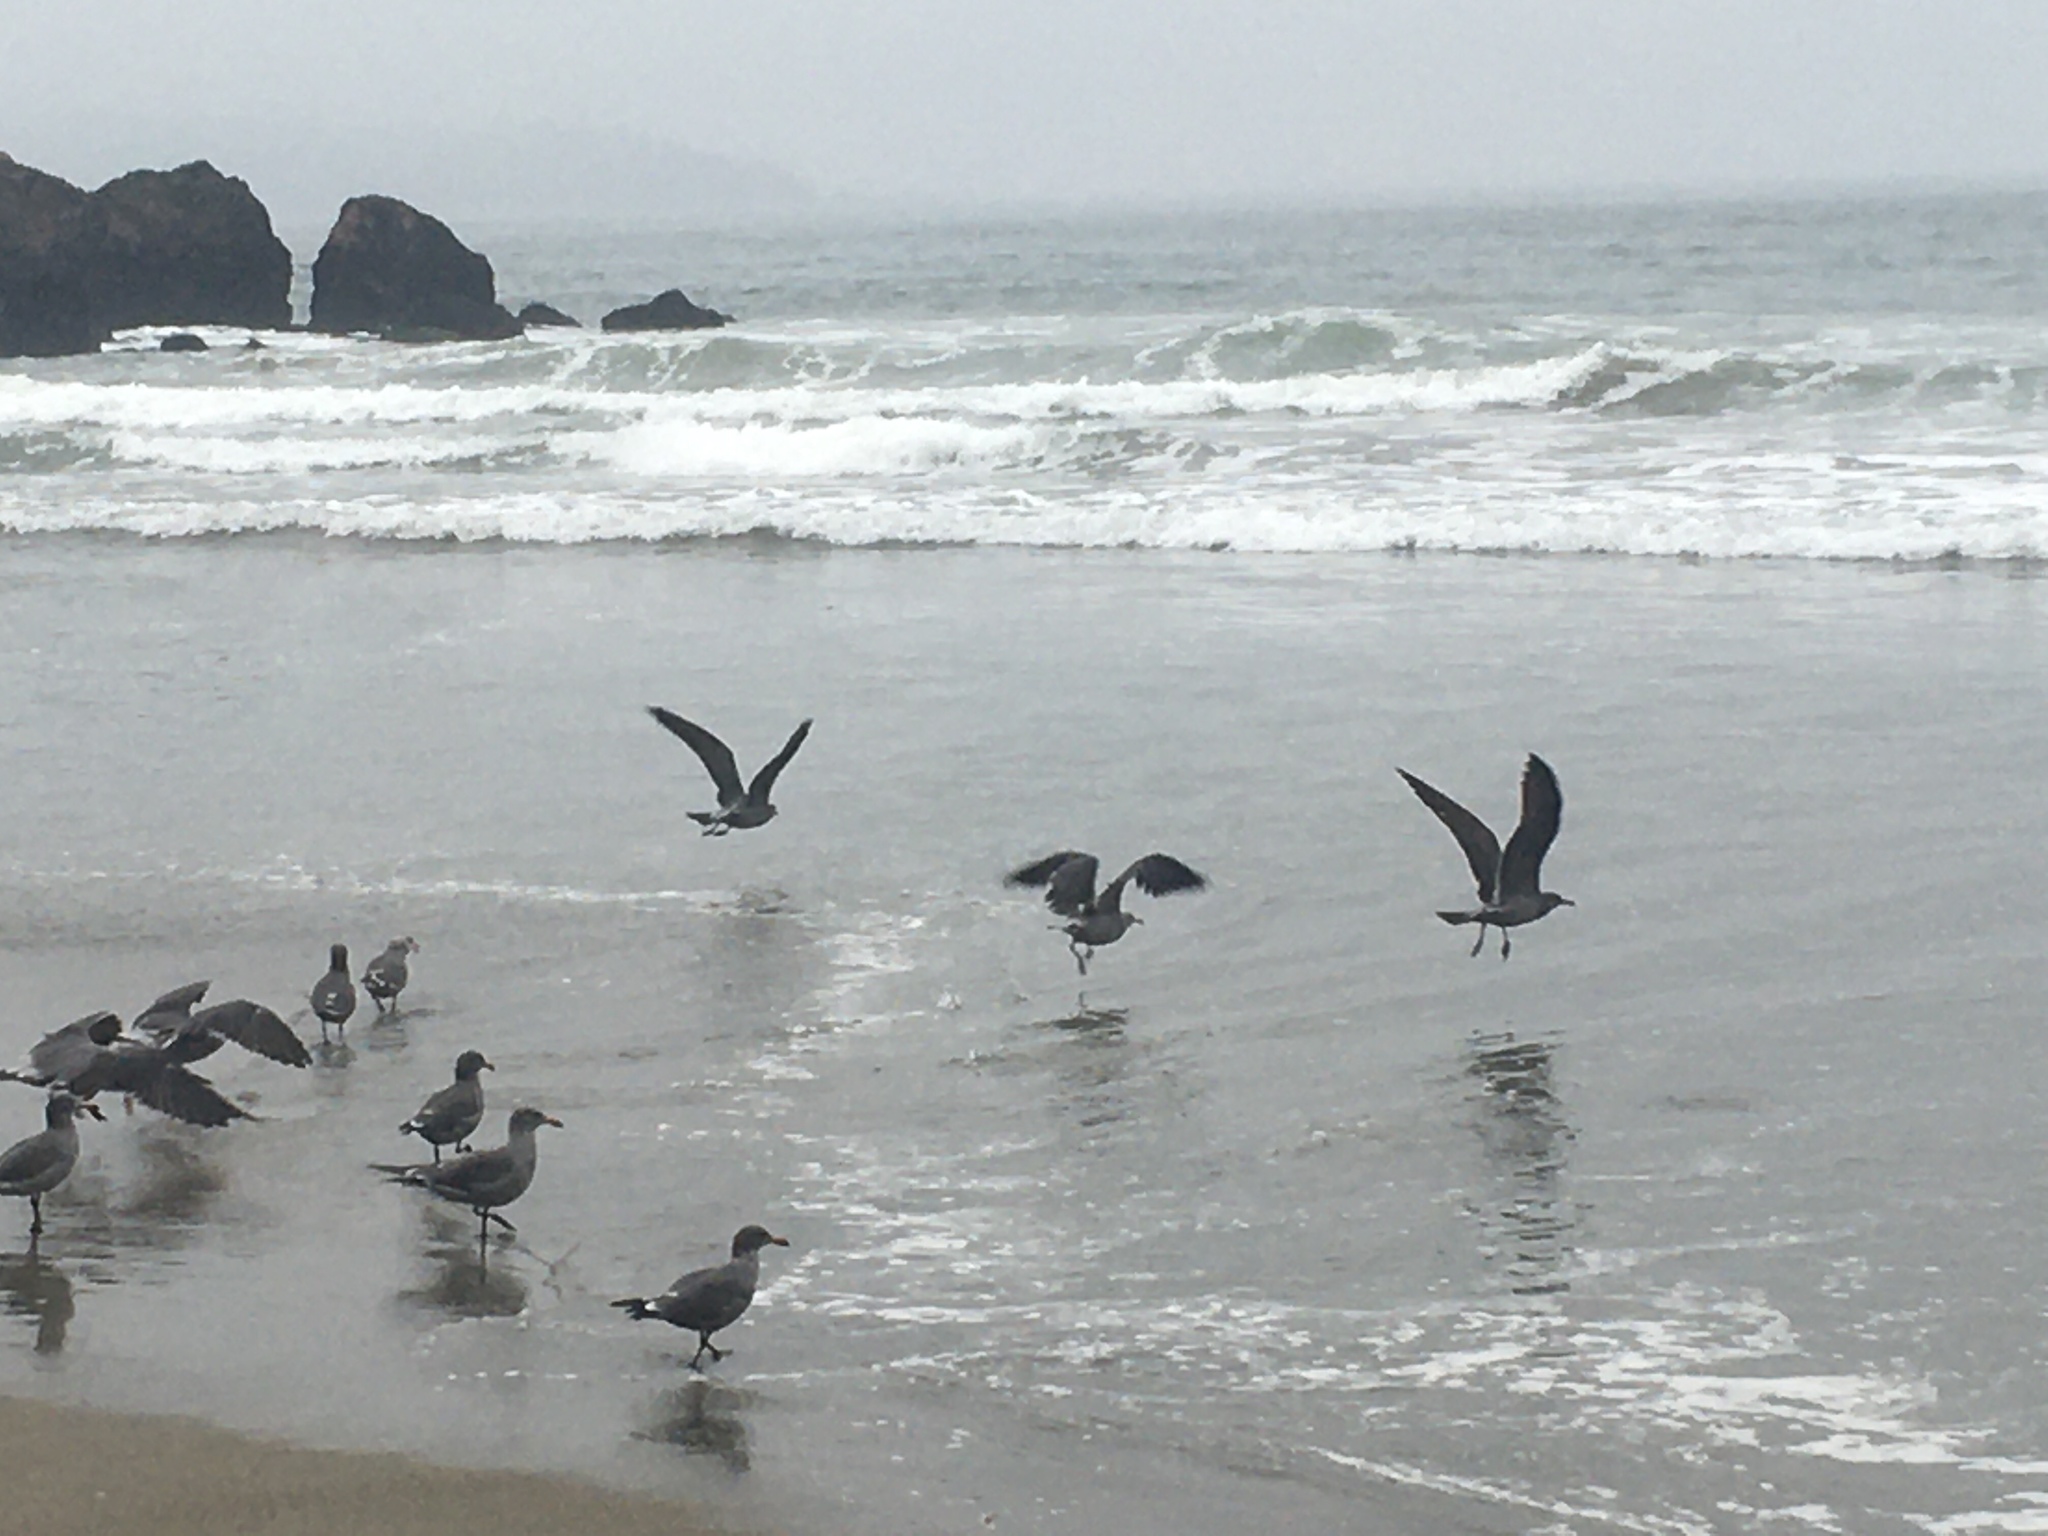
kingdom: Animalia
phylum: Chordata
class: Aves
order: Charadriiformes
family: Laridae
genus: Larus
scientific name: Larus heermanni
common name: Heermann's gull
